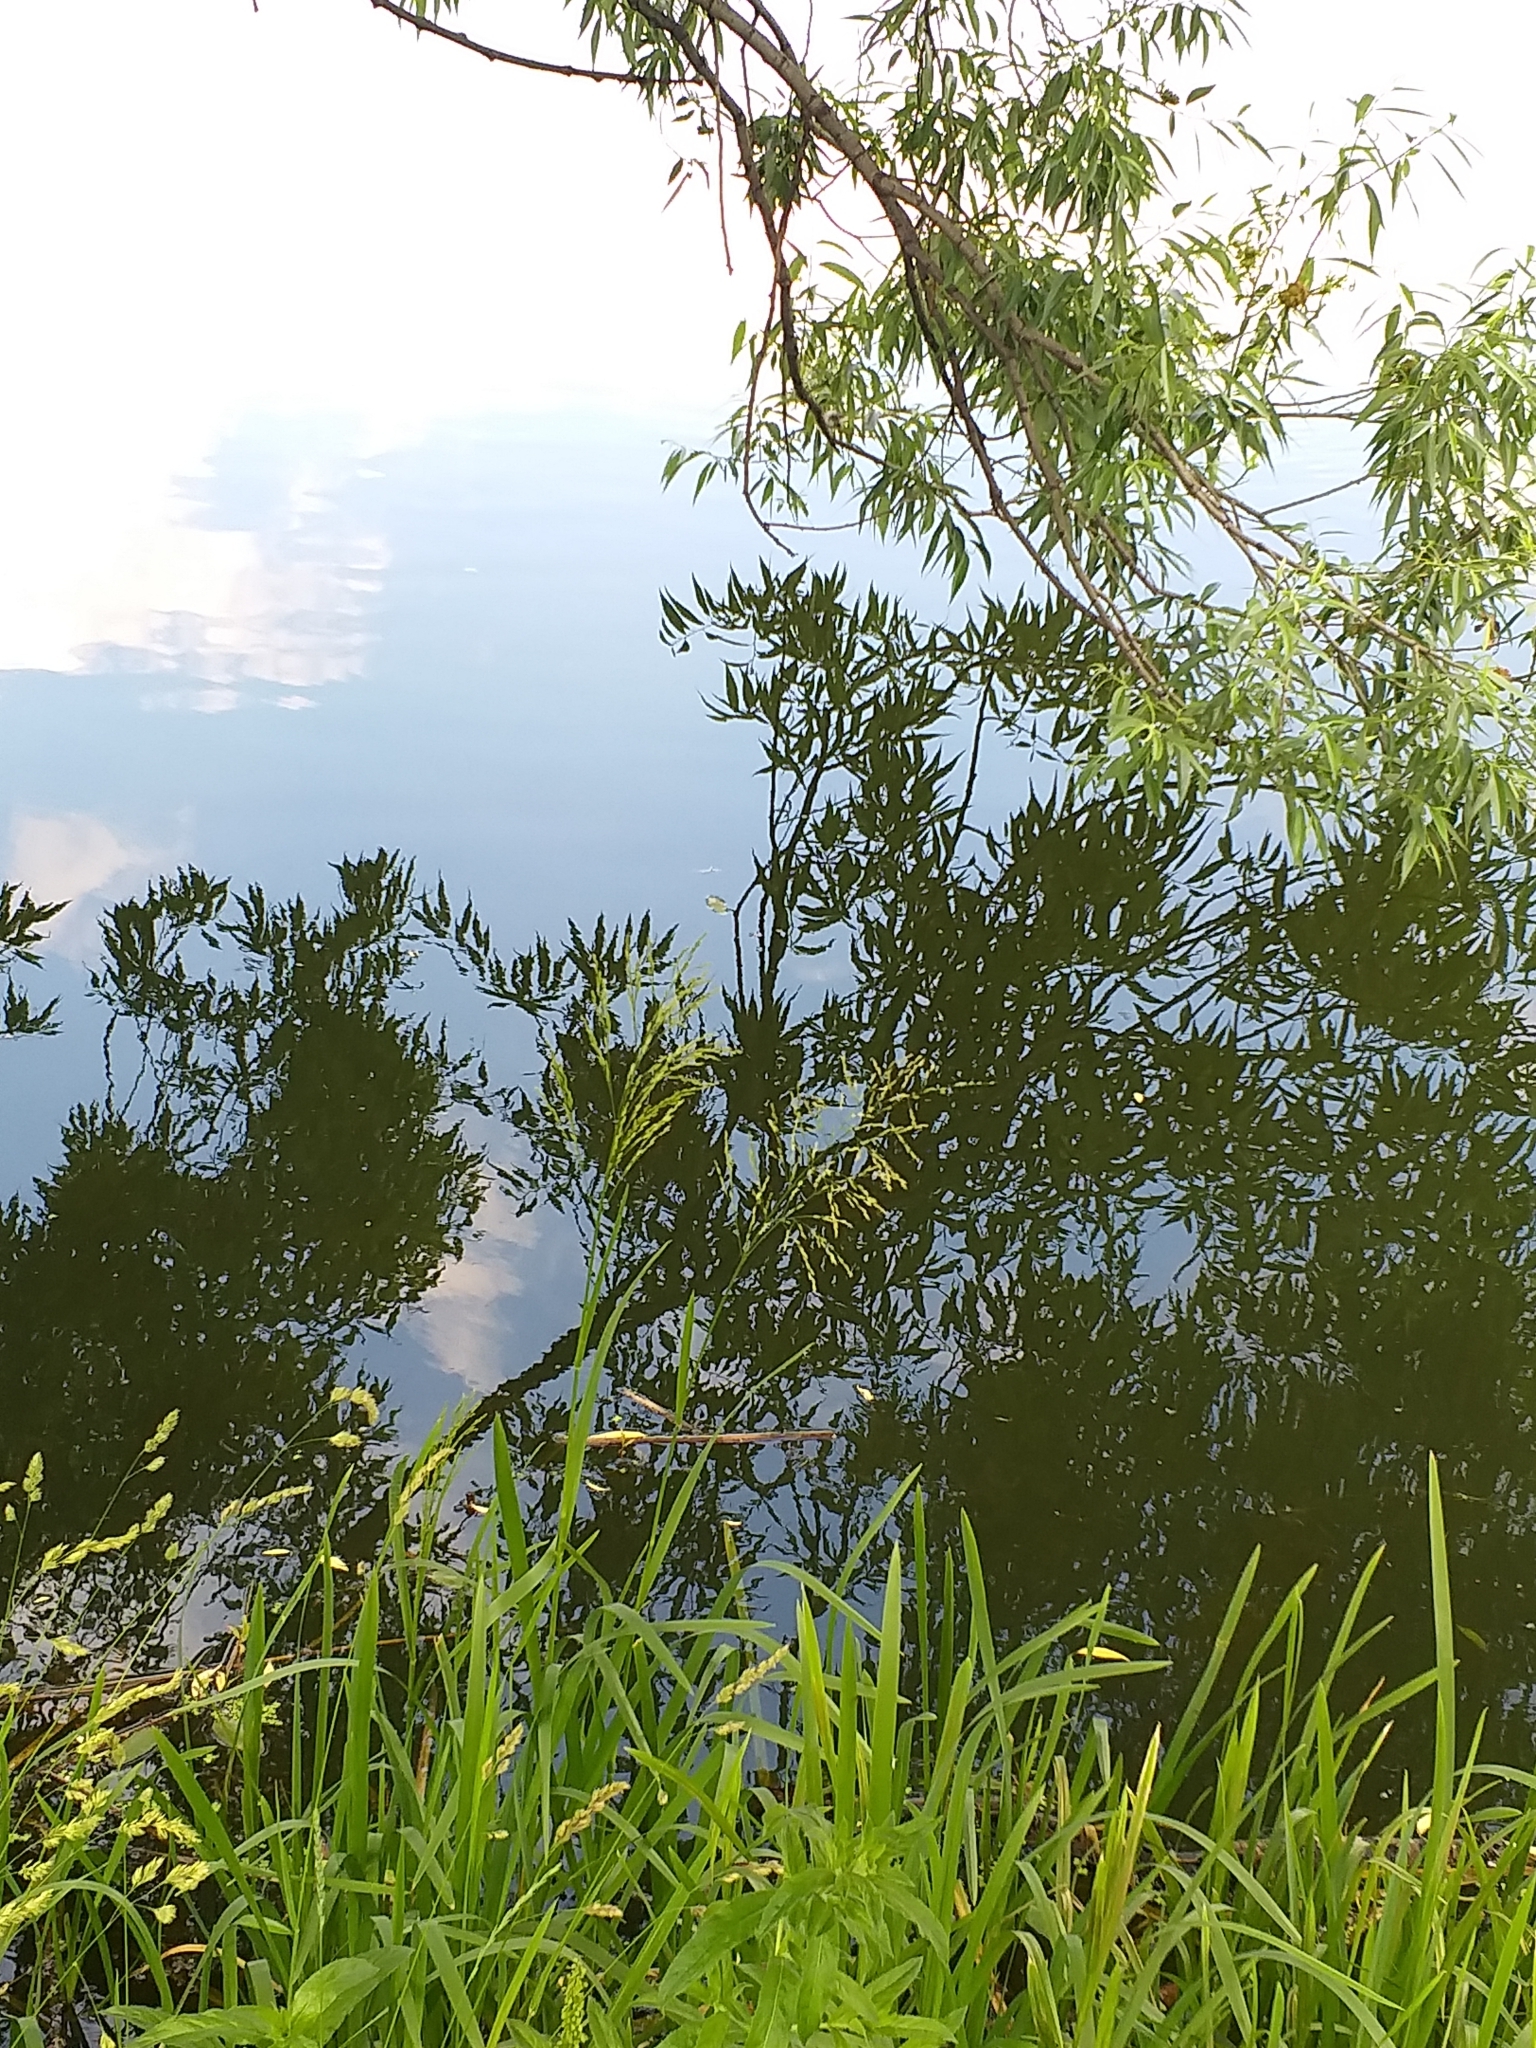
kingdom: Plantae
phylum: Tracheophyta
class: Liliopsida
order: Poales
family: Poaceae
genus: Glyceria
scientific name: Glyceria maxima
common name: Reed mannagrass
